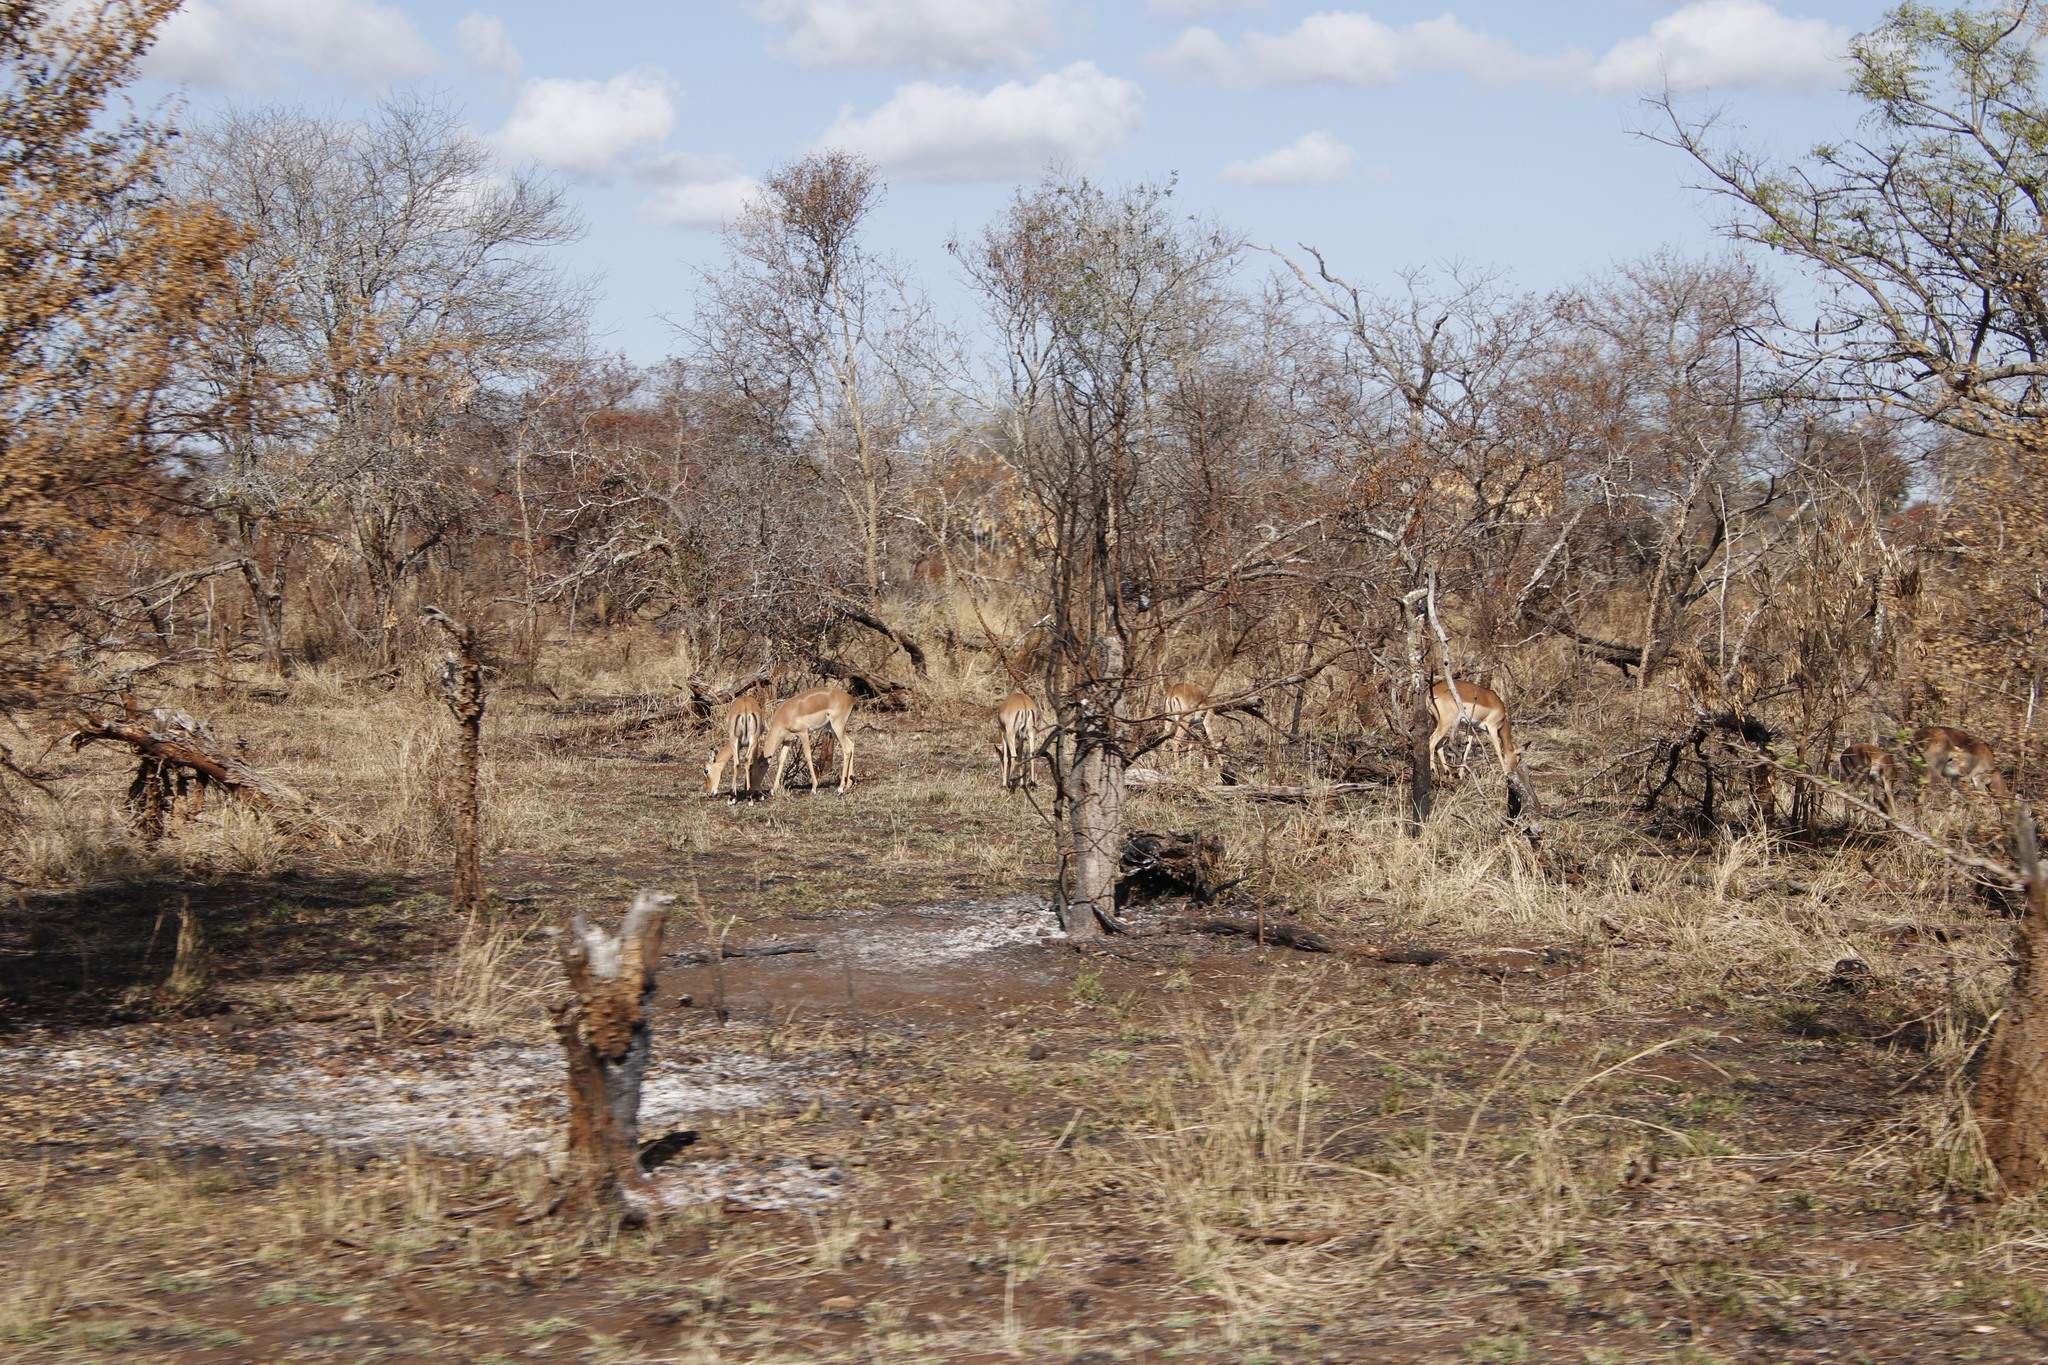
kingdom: Animalia
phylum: Chordata
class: Mammalia
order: Artiodactyla
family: Bovidae
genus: Aepyceros
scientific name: Aepyceros melampus
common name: Impala
